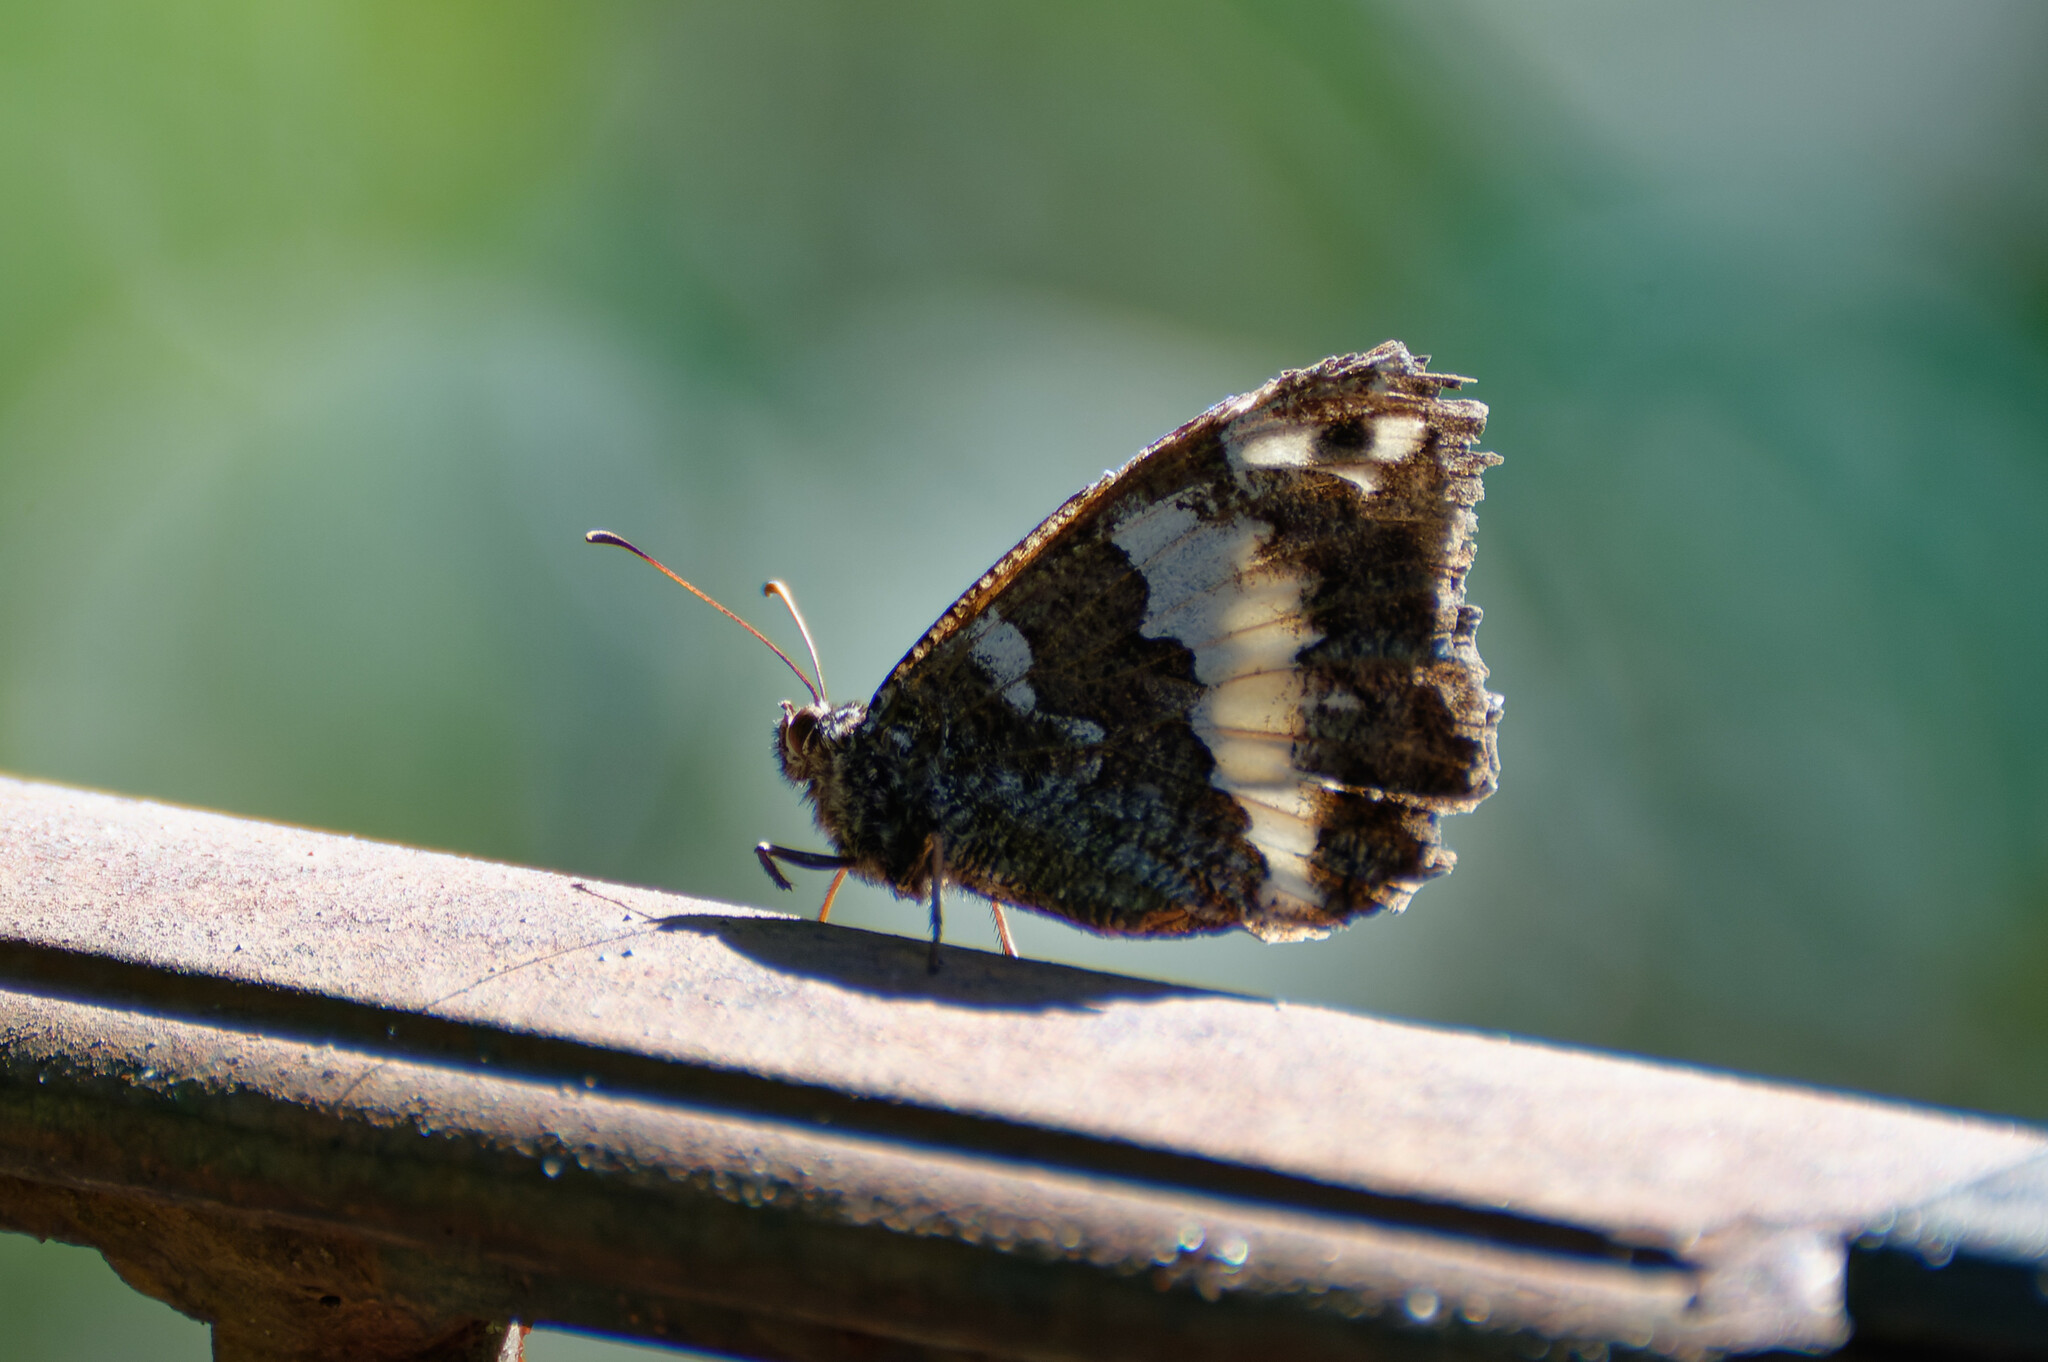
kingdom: Animalia
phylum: Arthropoda
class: Insecta
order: Lepidoptera
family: Lycaenidae
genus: Loweia
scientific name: Loweia tityrus
